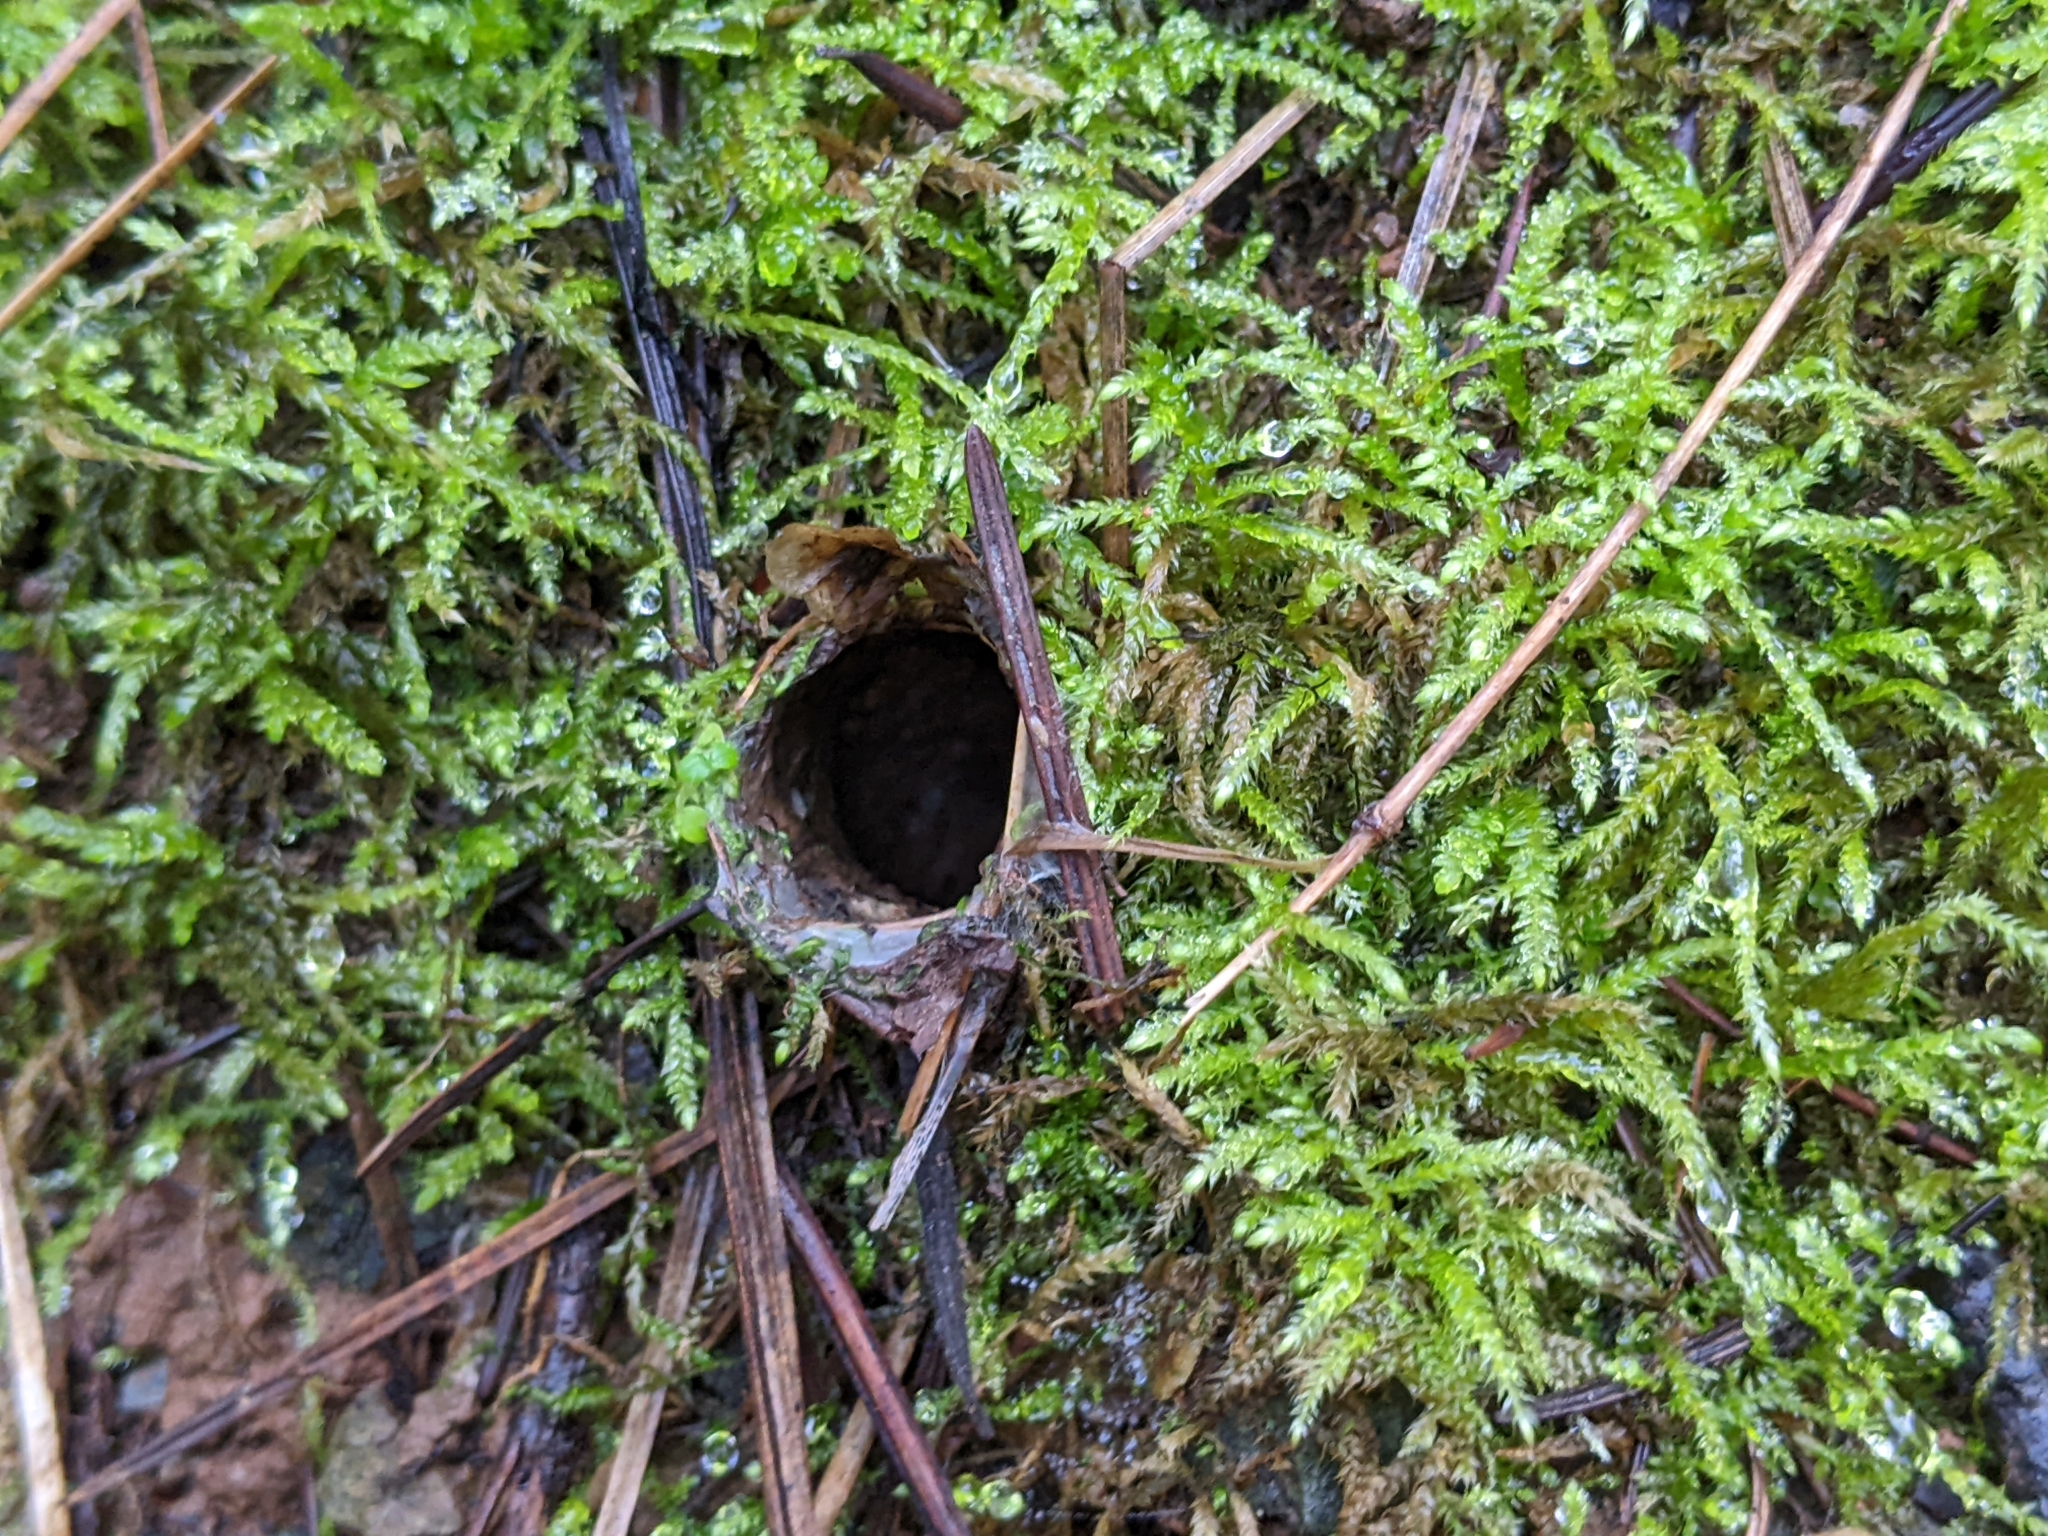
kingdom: Animalia
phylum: Arthropoda
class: Arachnida
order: Araneae
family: Antrodiaetidae
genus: Atypoides
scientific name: Atypoides riversi
